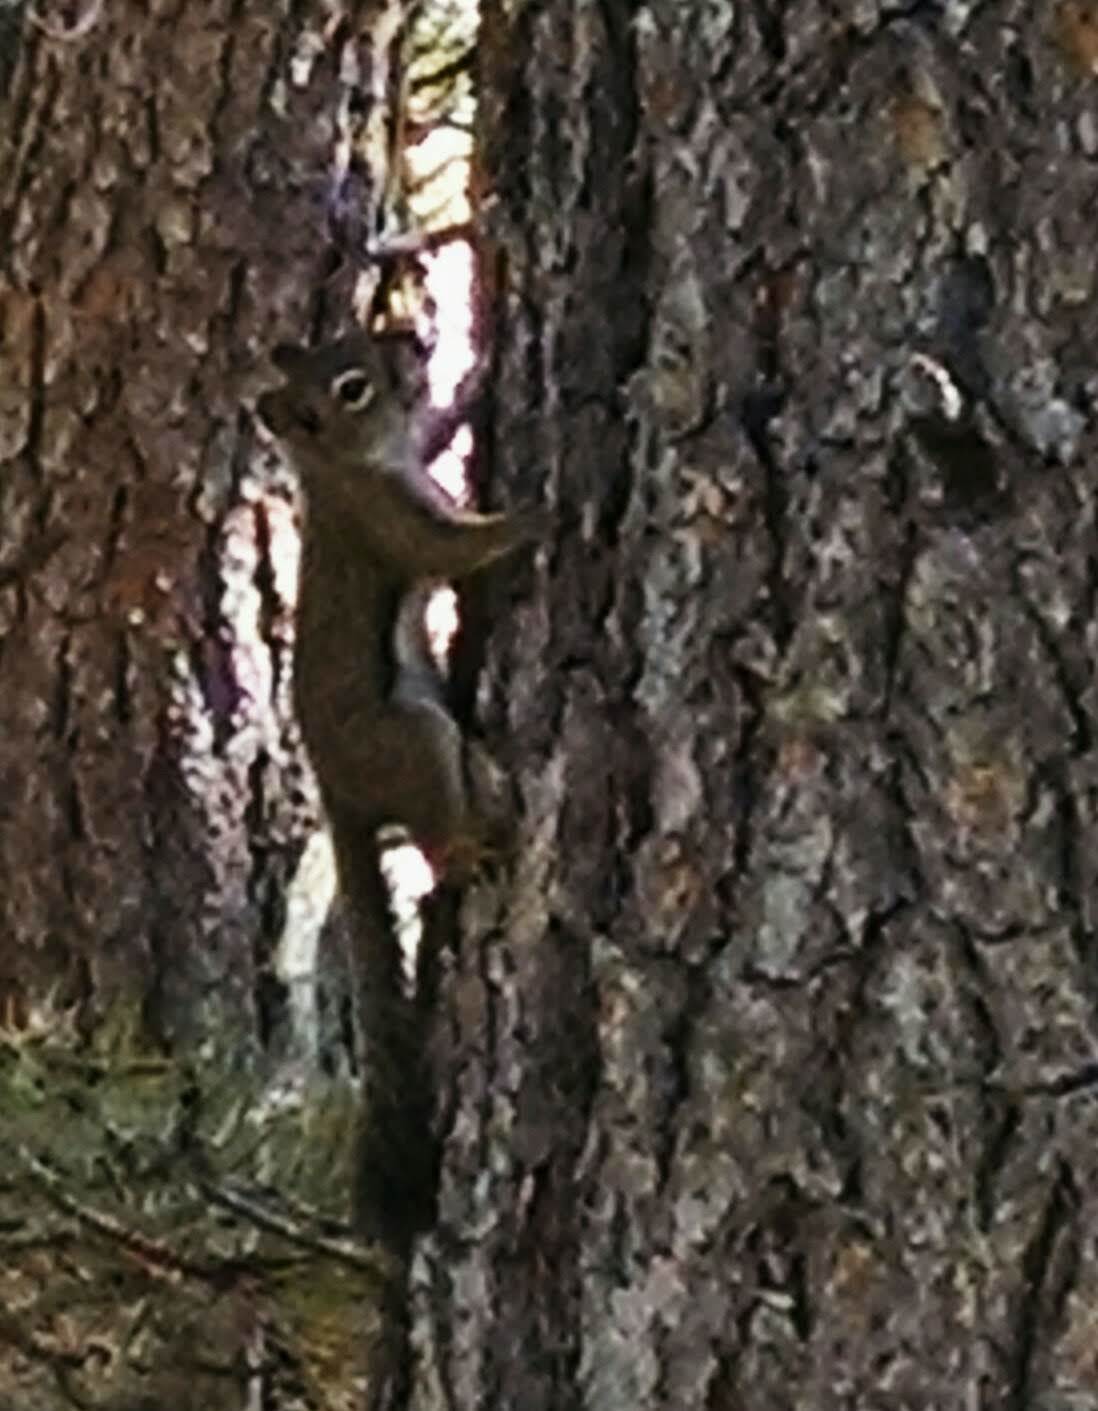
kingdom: Animalia
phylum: Chordata
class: Mammalia
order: Rodentia
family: Sciuridae
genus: Tamiasciurus
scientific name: Tamiasciurus hudsonicus
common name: Red squirrel
